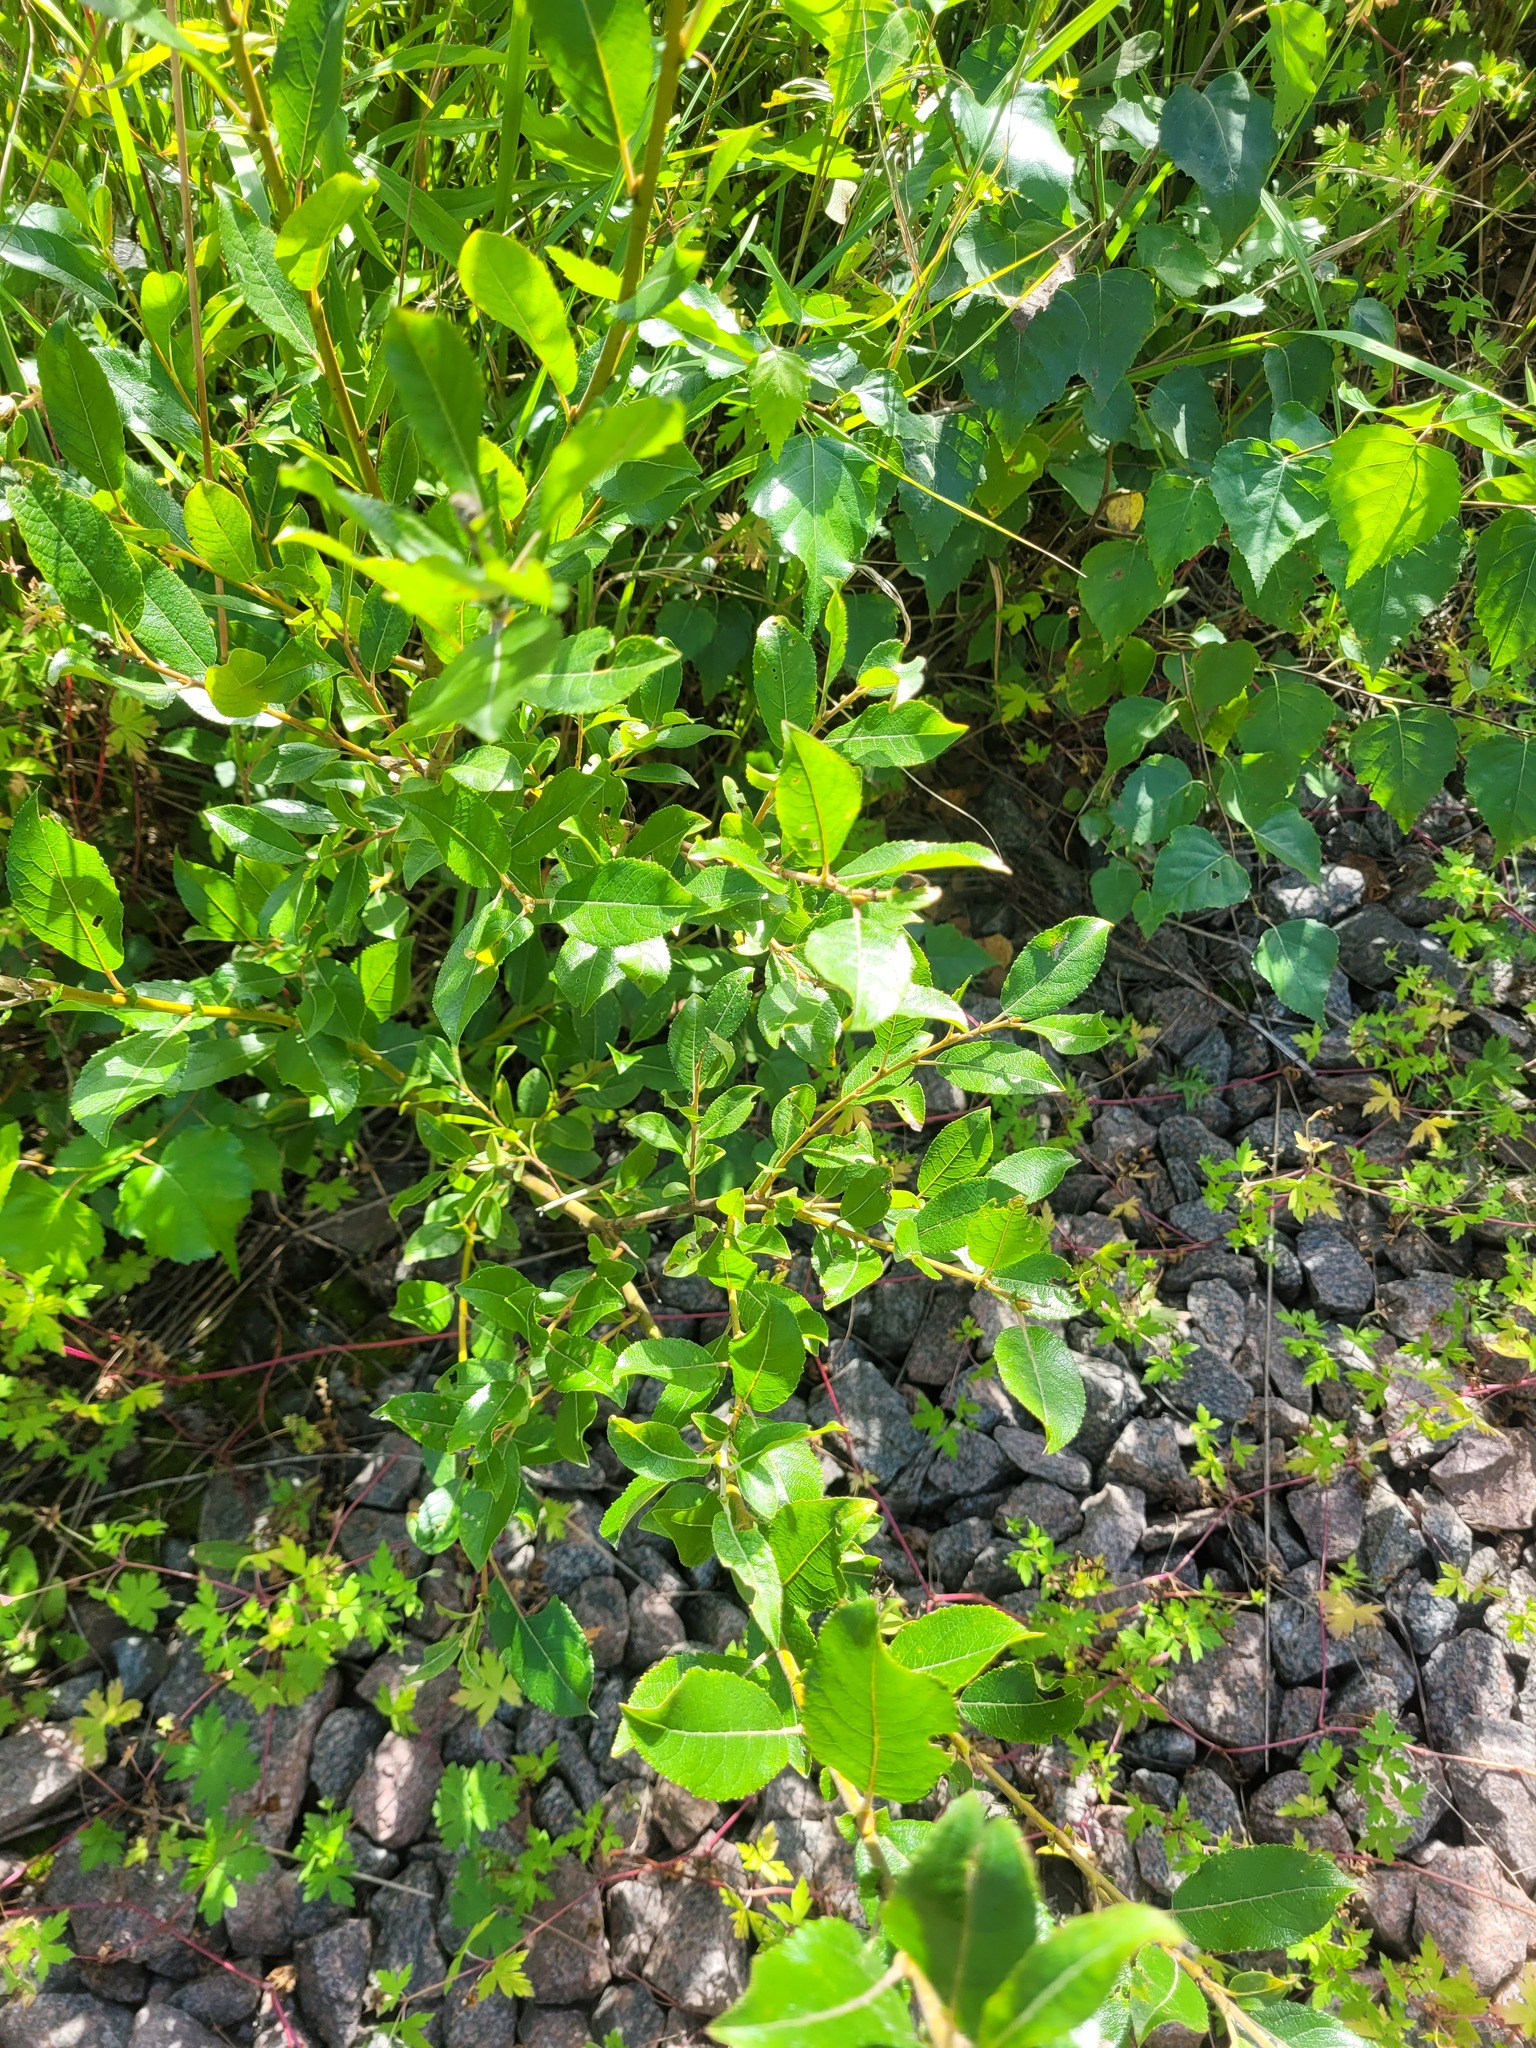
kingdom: Plantae
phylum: Tracheophyta
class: Magnoliopsida
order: Malpighiales
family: Salicaceae
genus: Salix
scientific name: Salix myrsinifolia
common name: Dark-leaved willow
